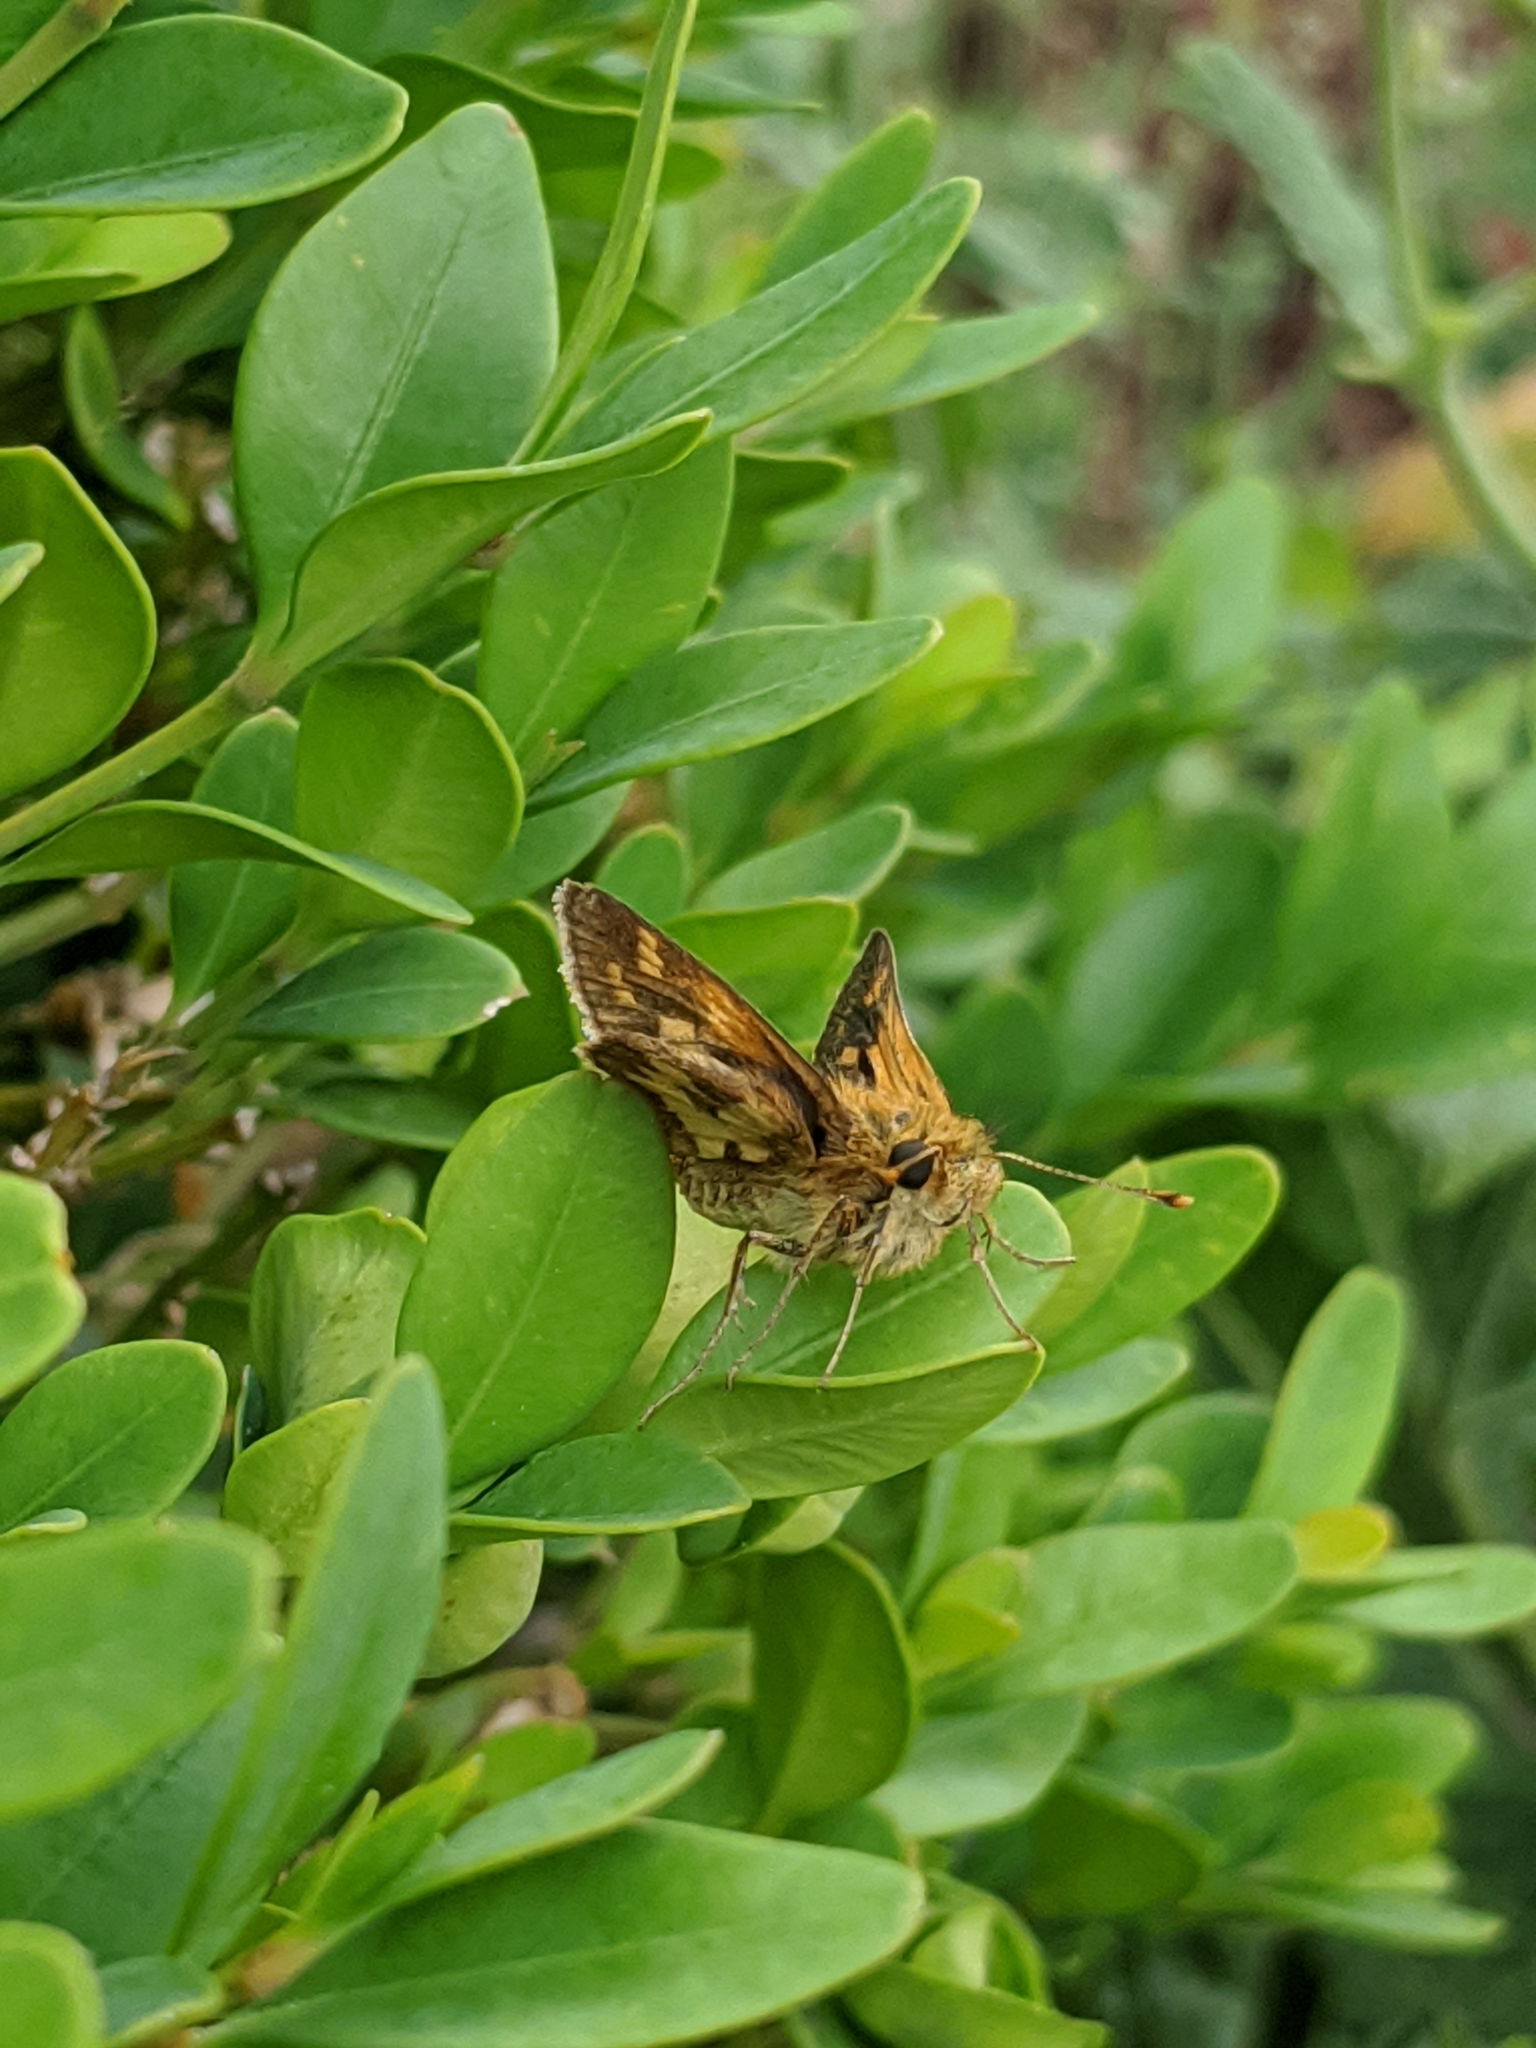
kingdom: Animalia
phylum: Arthropoda
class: Insecta
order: Lepidoptera
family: Hesperiidae
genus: Polites
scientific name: Polites coras
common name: Peck's skipper
